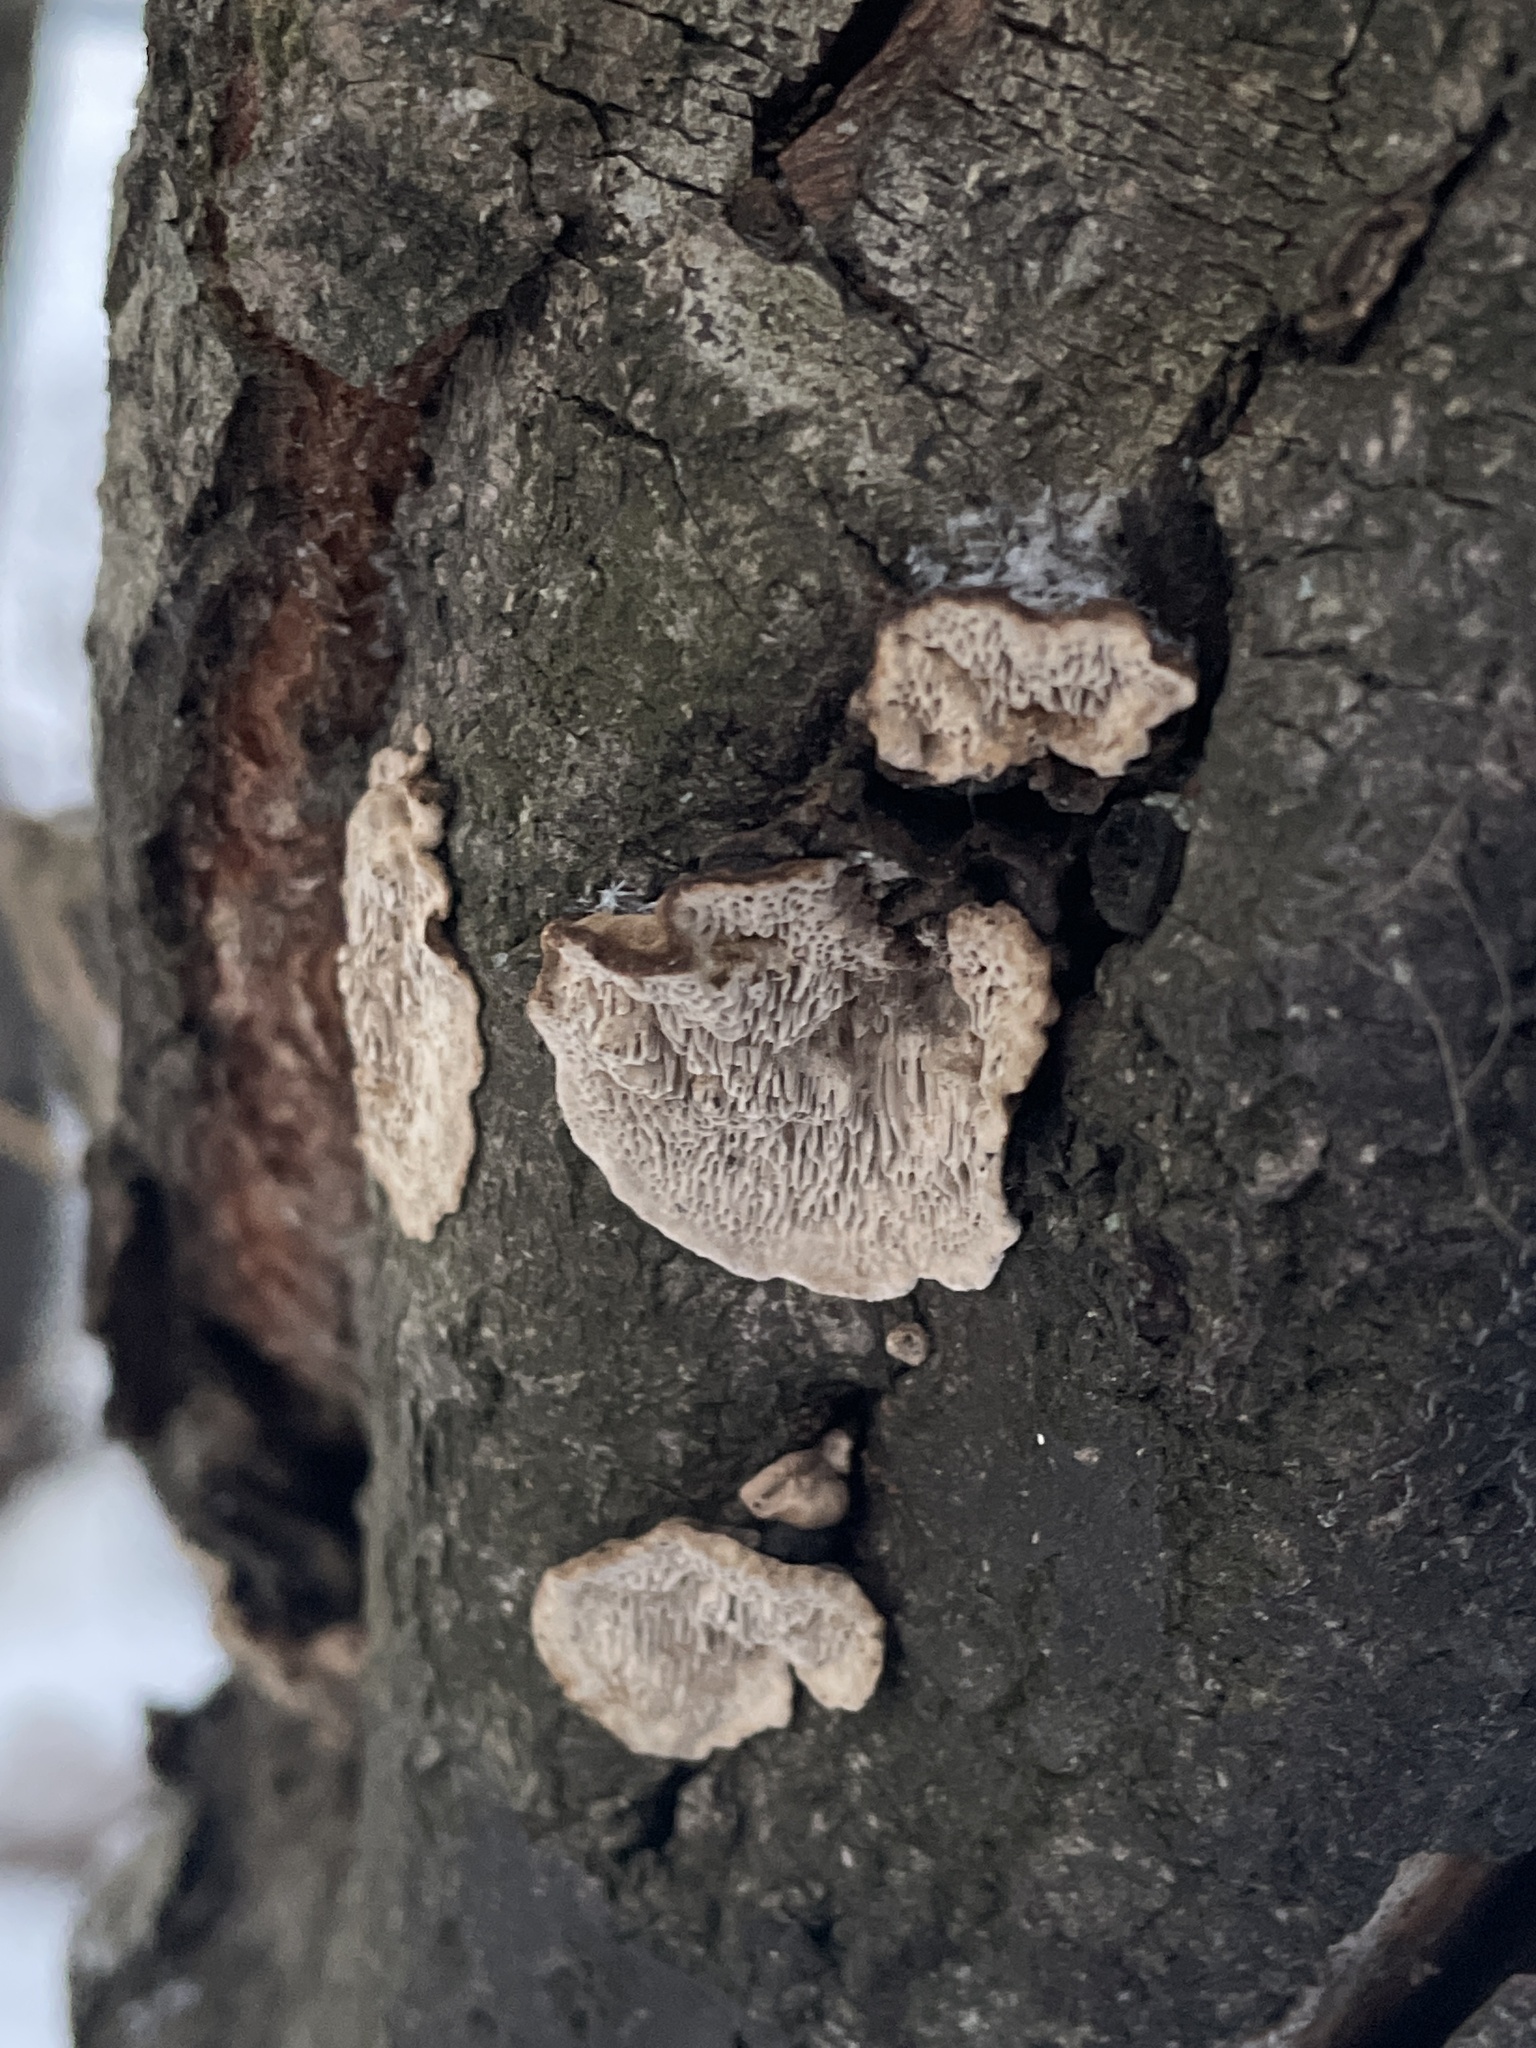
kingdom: Fungi
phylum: Basidiomycota
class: Agaricomycetes
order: Polyporales
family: Polyporaceae
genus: Podofomes
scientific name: Podofomes mollis
